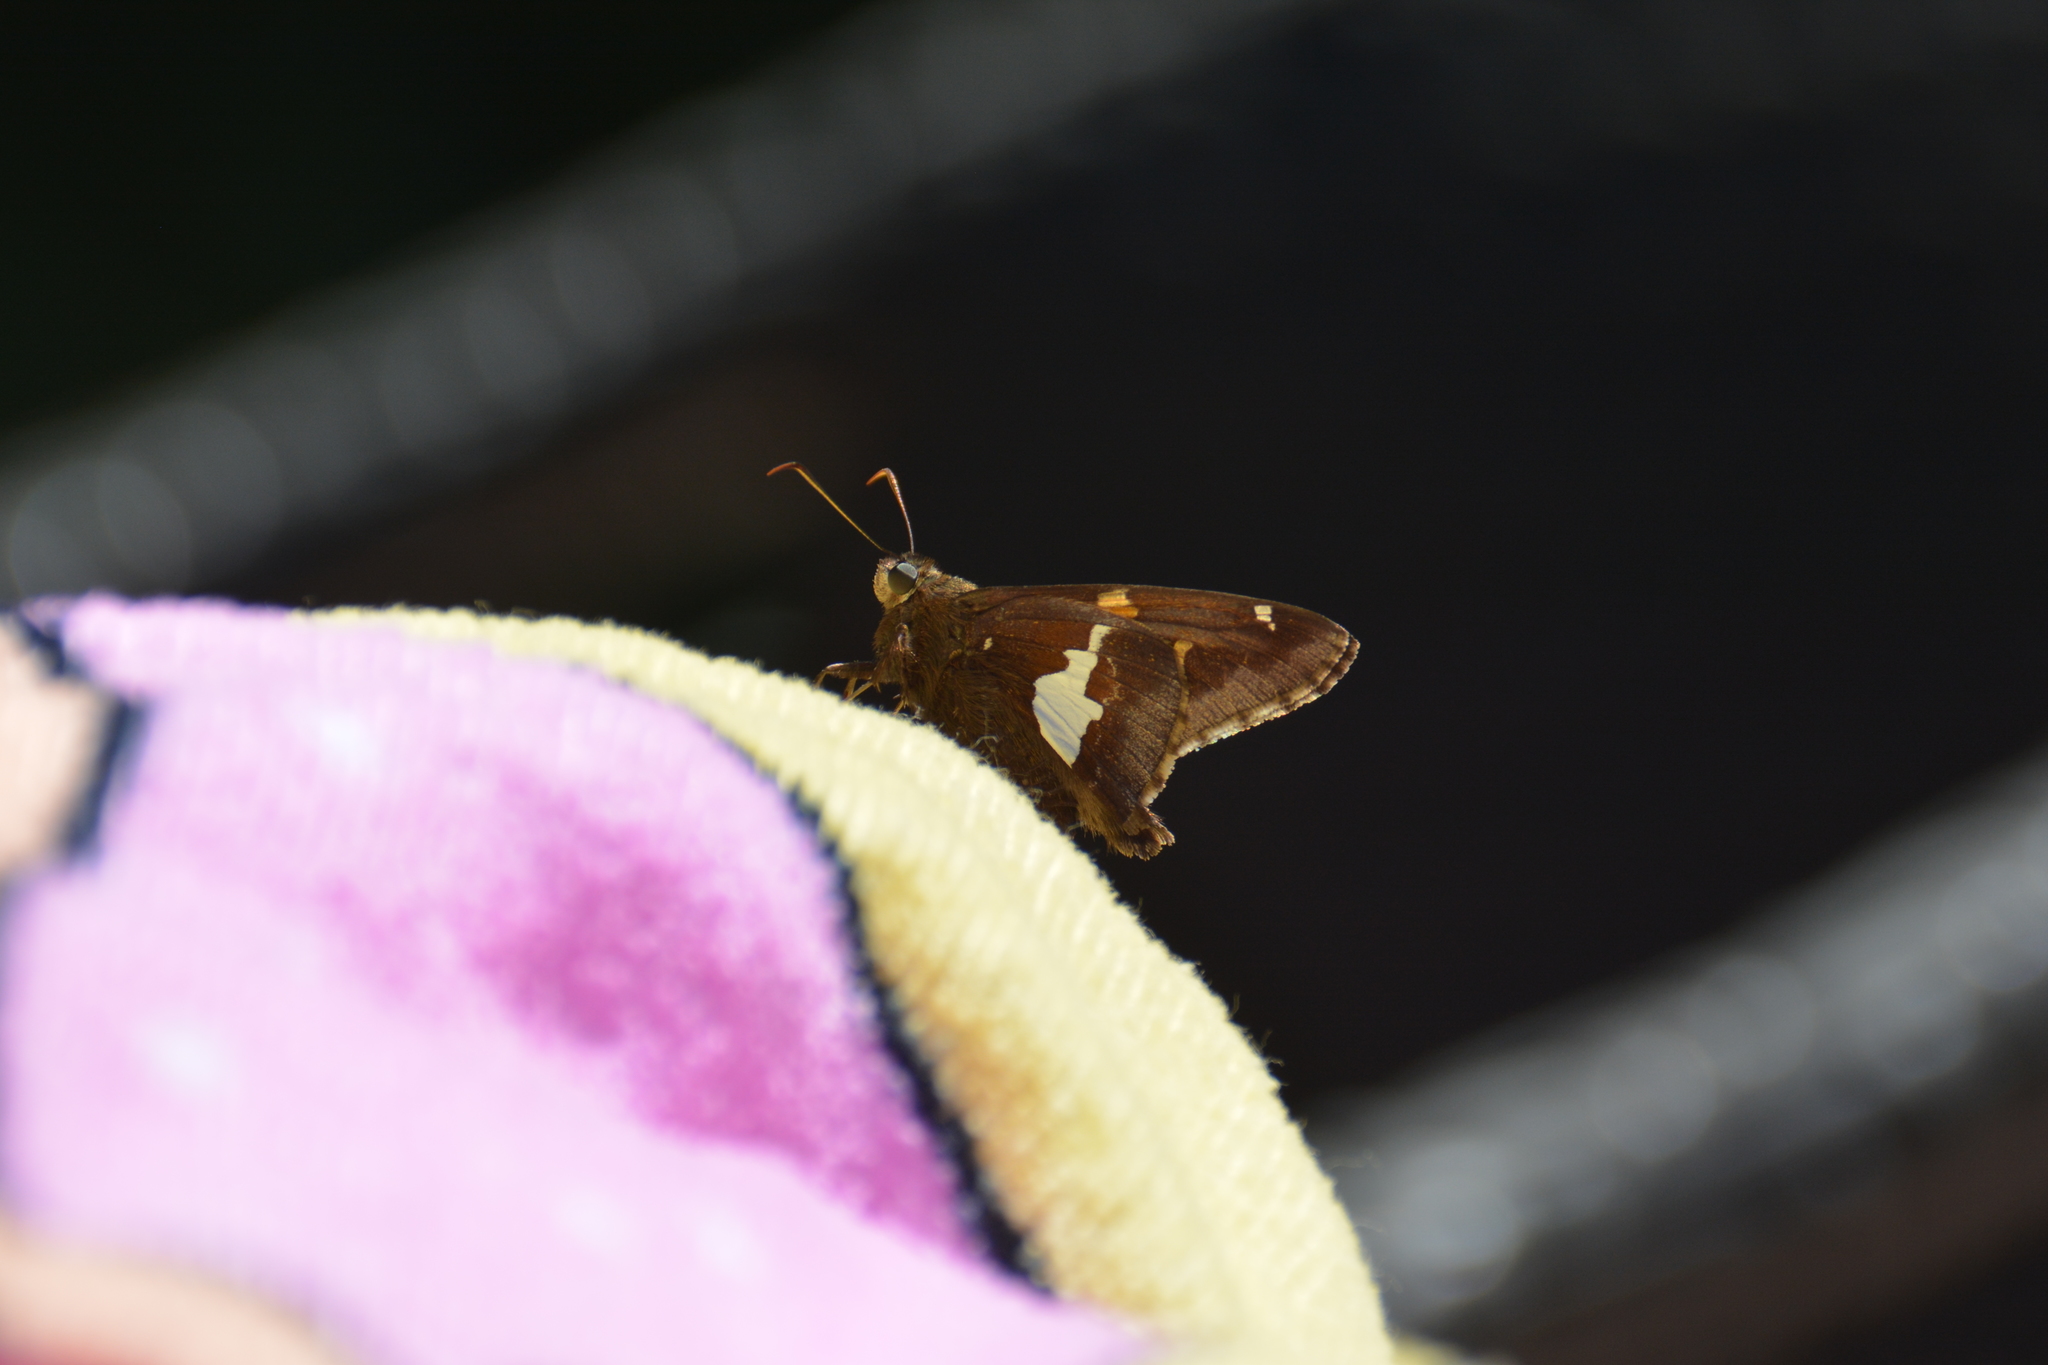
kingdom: Animalia
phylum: Arthropoda
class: Insecta
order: Lepidoptera
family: Hesperiidae
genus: Epargyreus
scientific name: Epargyreus clarus
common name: Silver-spotted skipper
